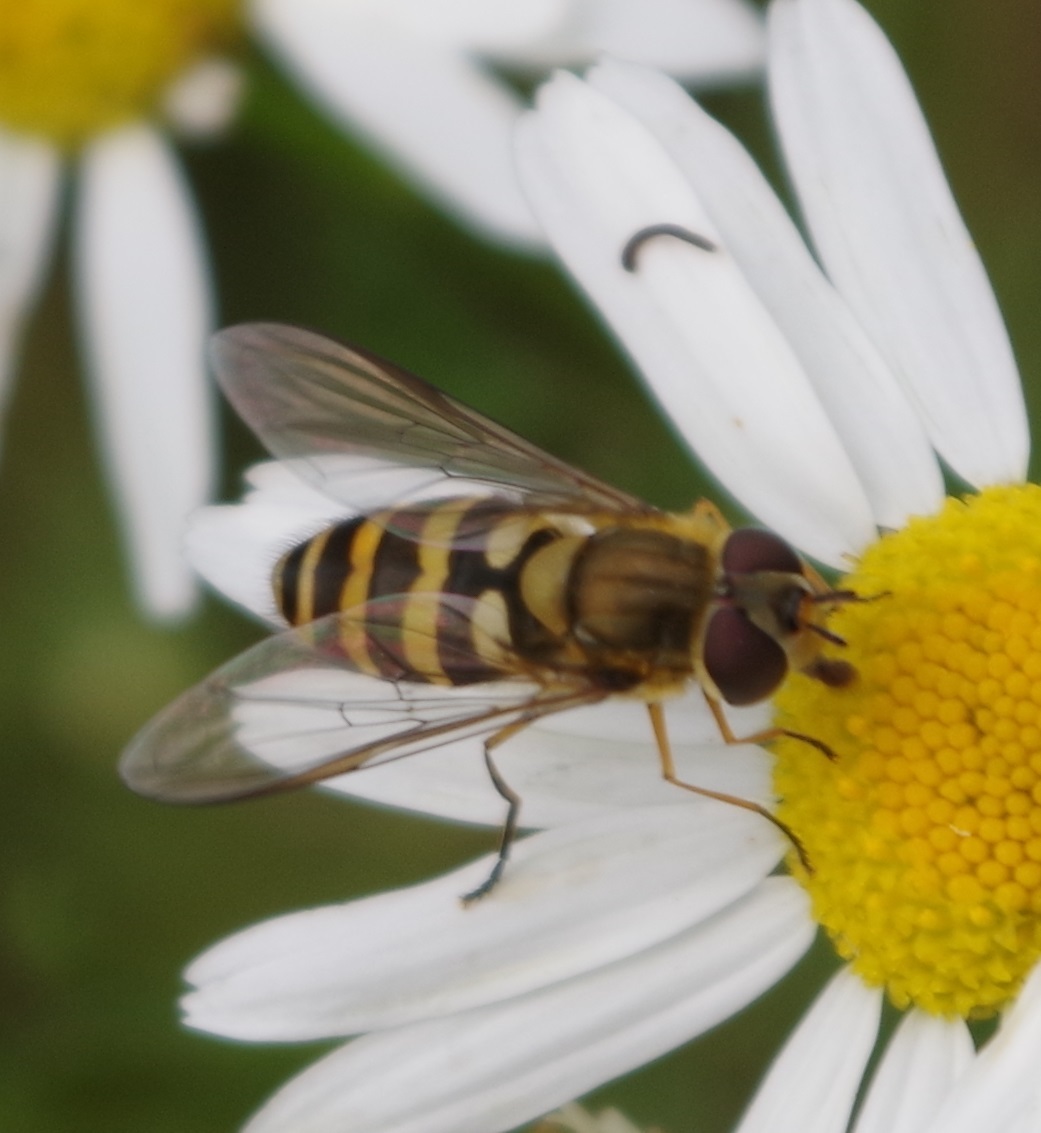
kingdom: Animalia
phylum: Arthropoda
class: Insecta
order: Diptera
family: Syrphidae
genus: Syrphus
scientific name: Syrphus
